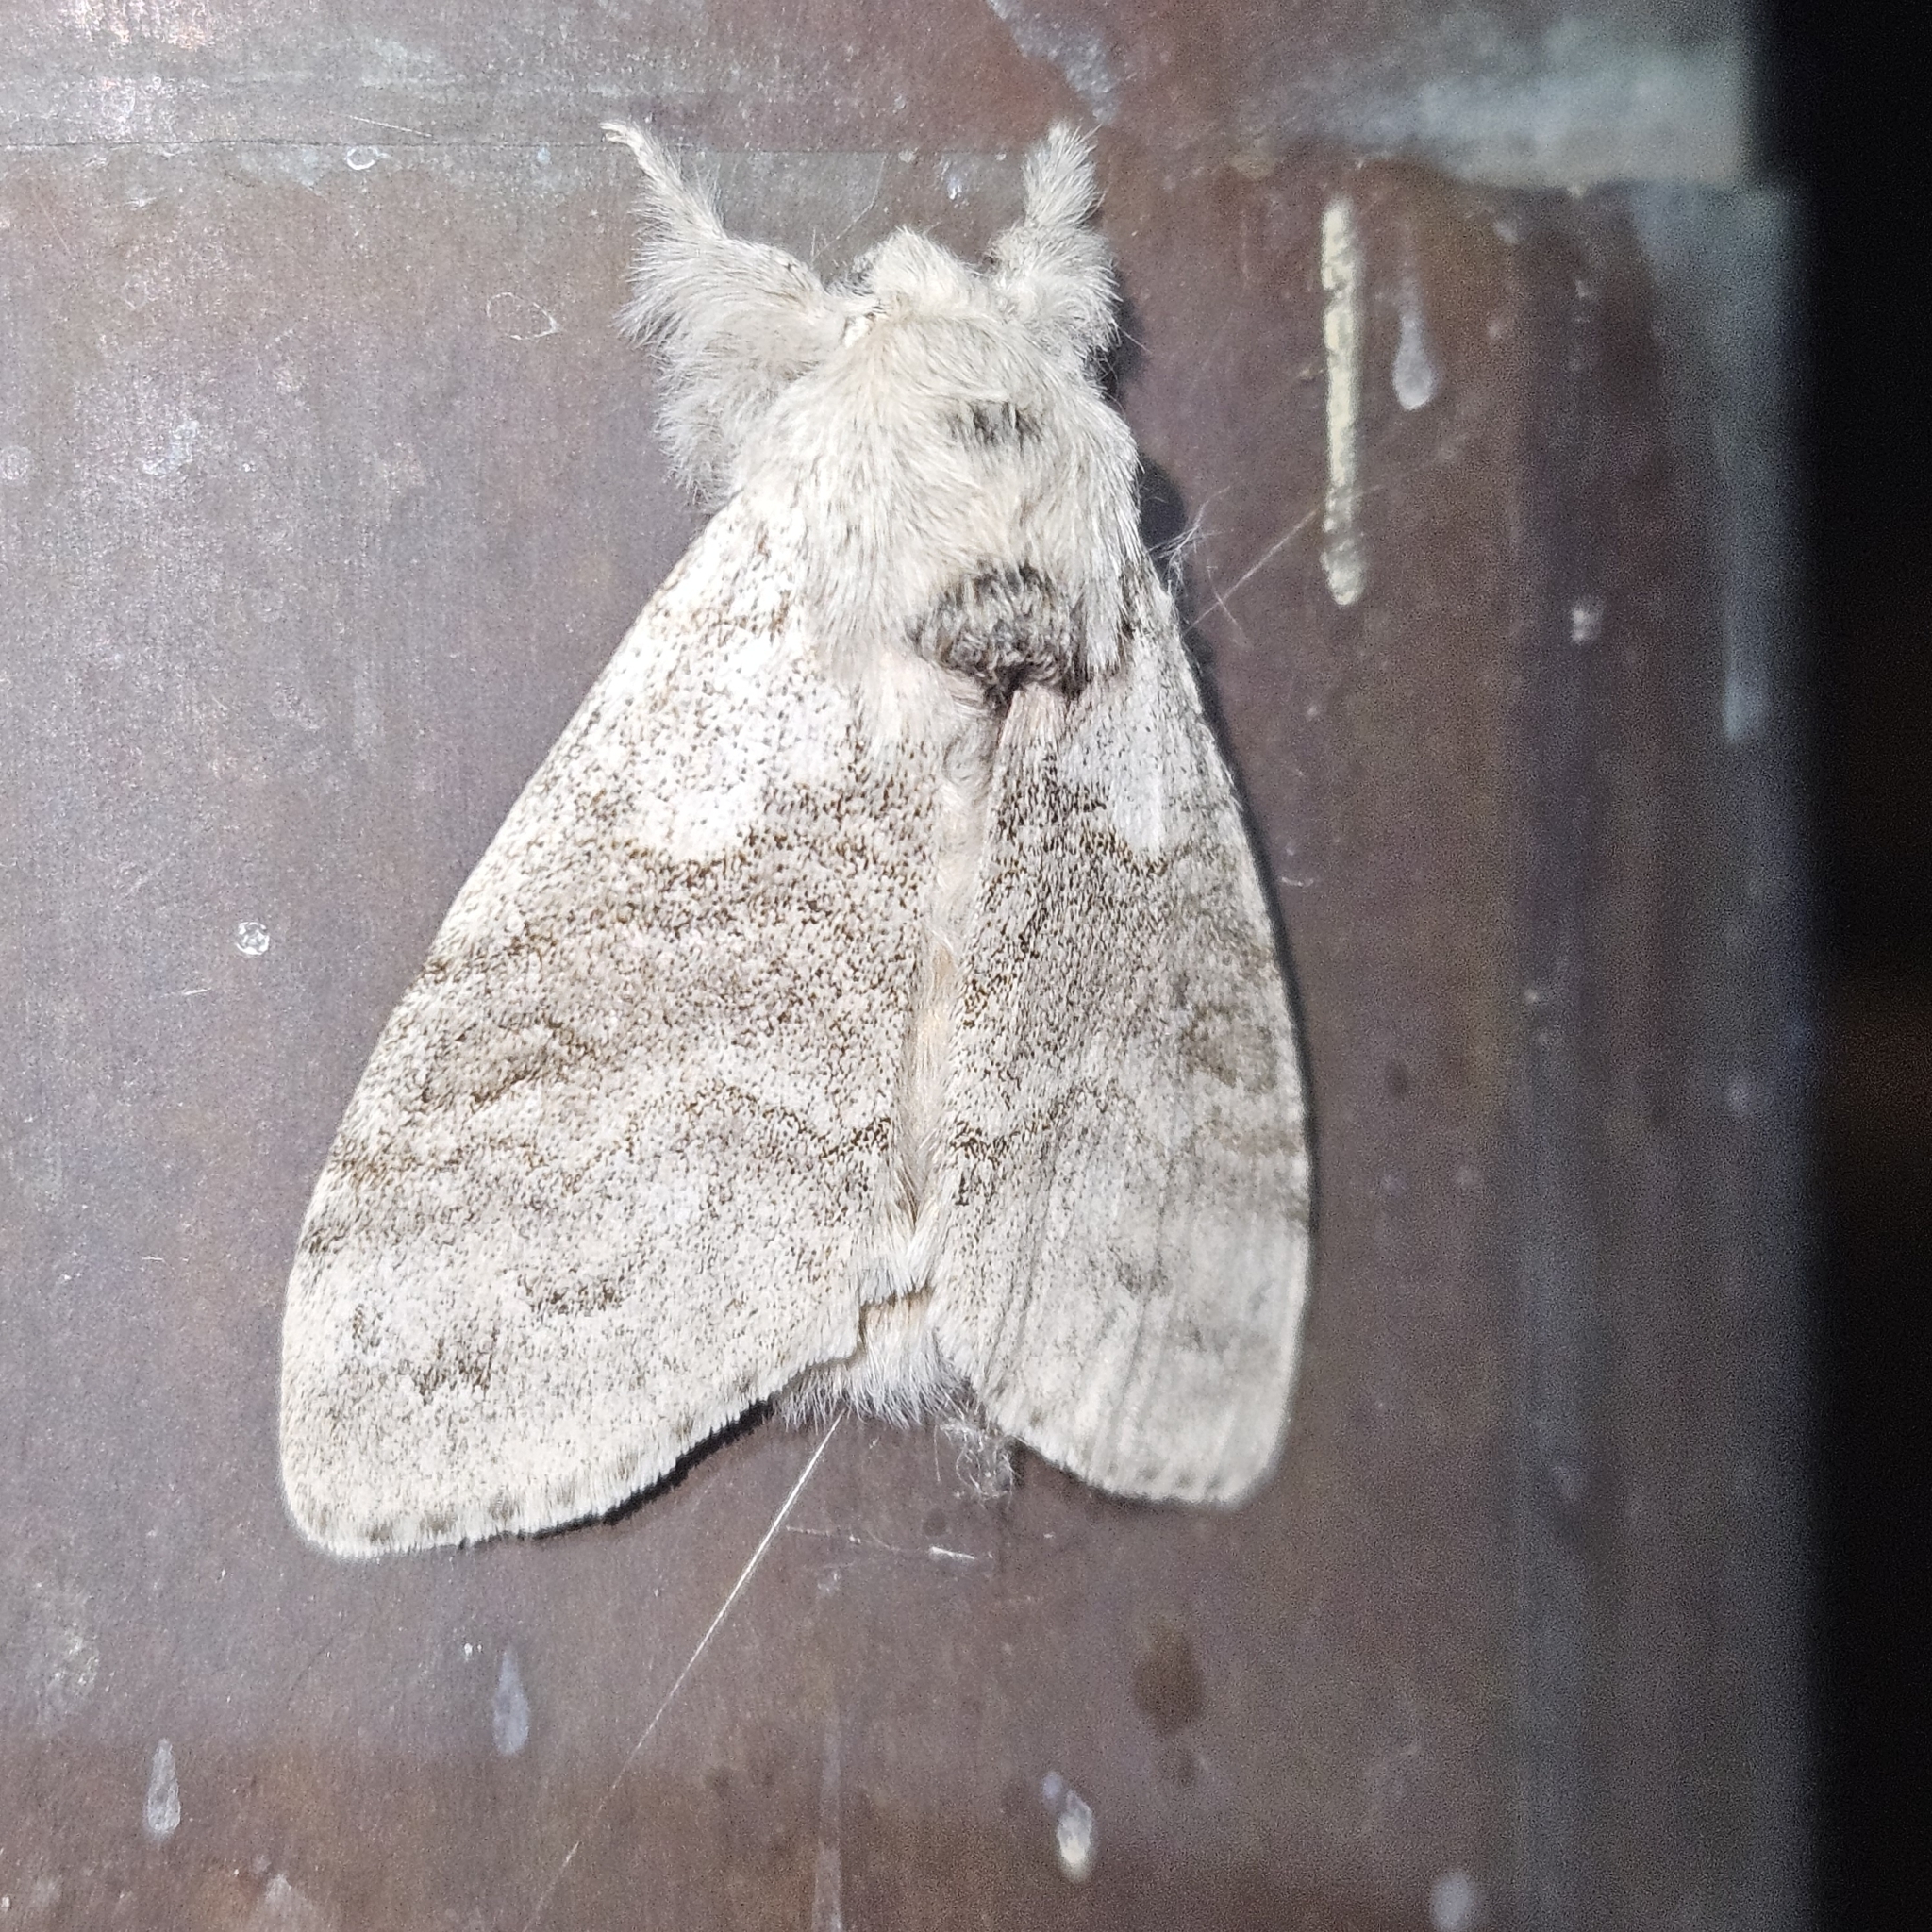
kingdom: Animalia
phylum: Arthropoda
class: Insecta
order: Lepidoptera
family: Erebidae
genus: Calliteara
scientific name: Calliteara pudibunda
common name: Pale tussock
